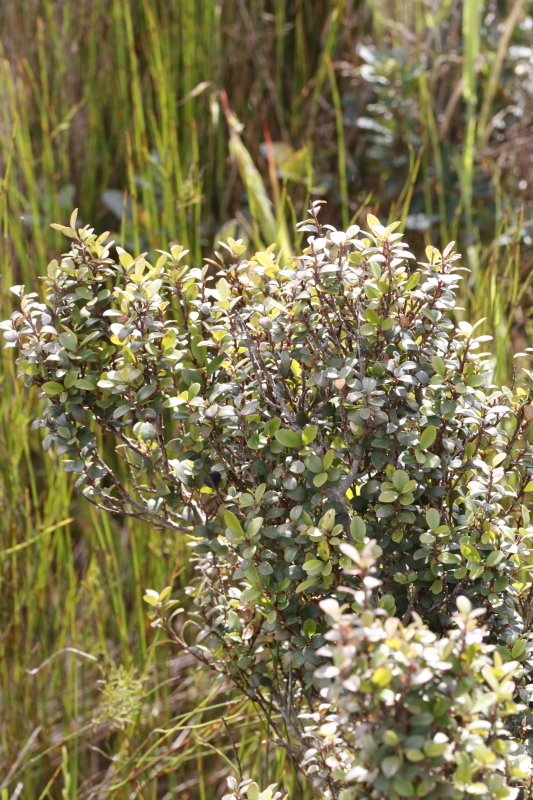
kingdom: Plantae
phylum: Tracheophyta
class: Magnoliopsida
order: Ericales
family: Primulaceae
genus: Myrsine
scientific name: Myrsine africana
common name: African-boxwood
